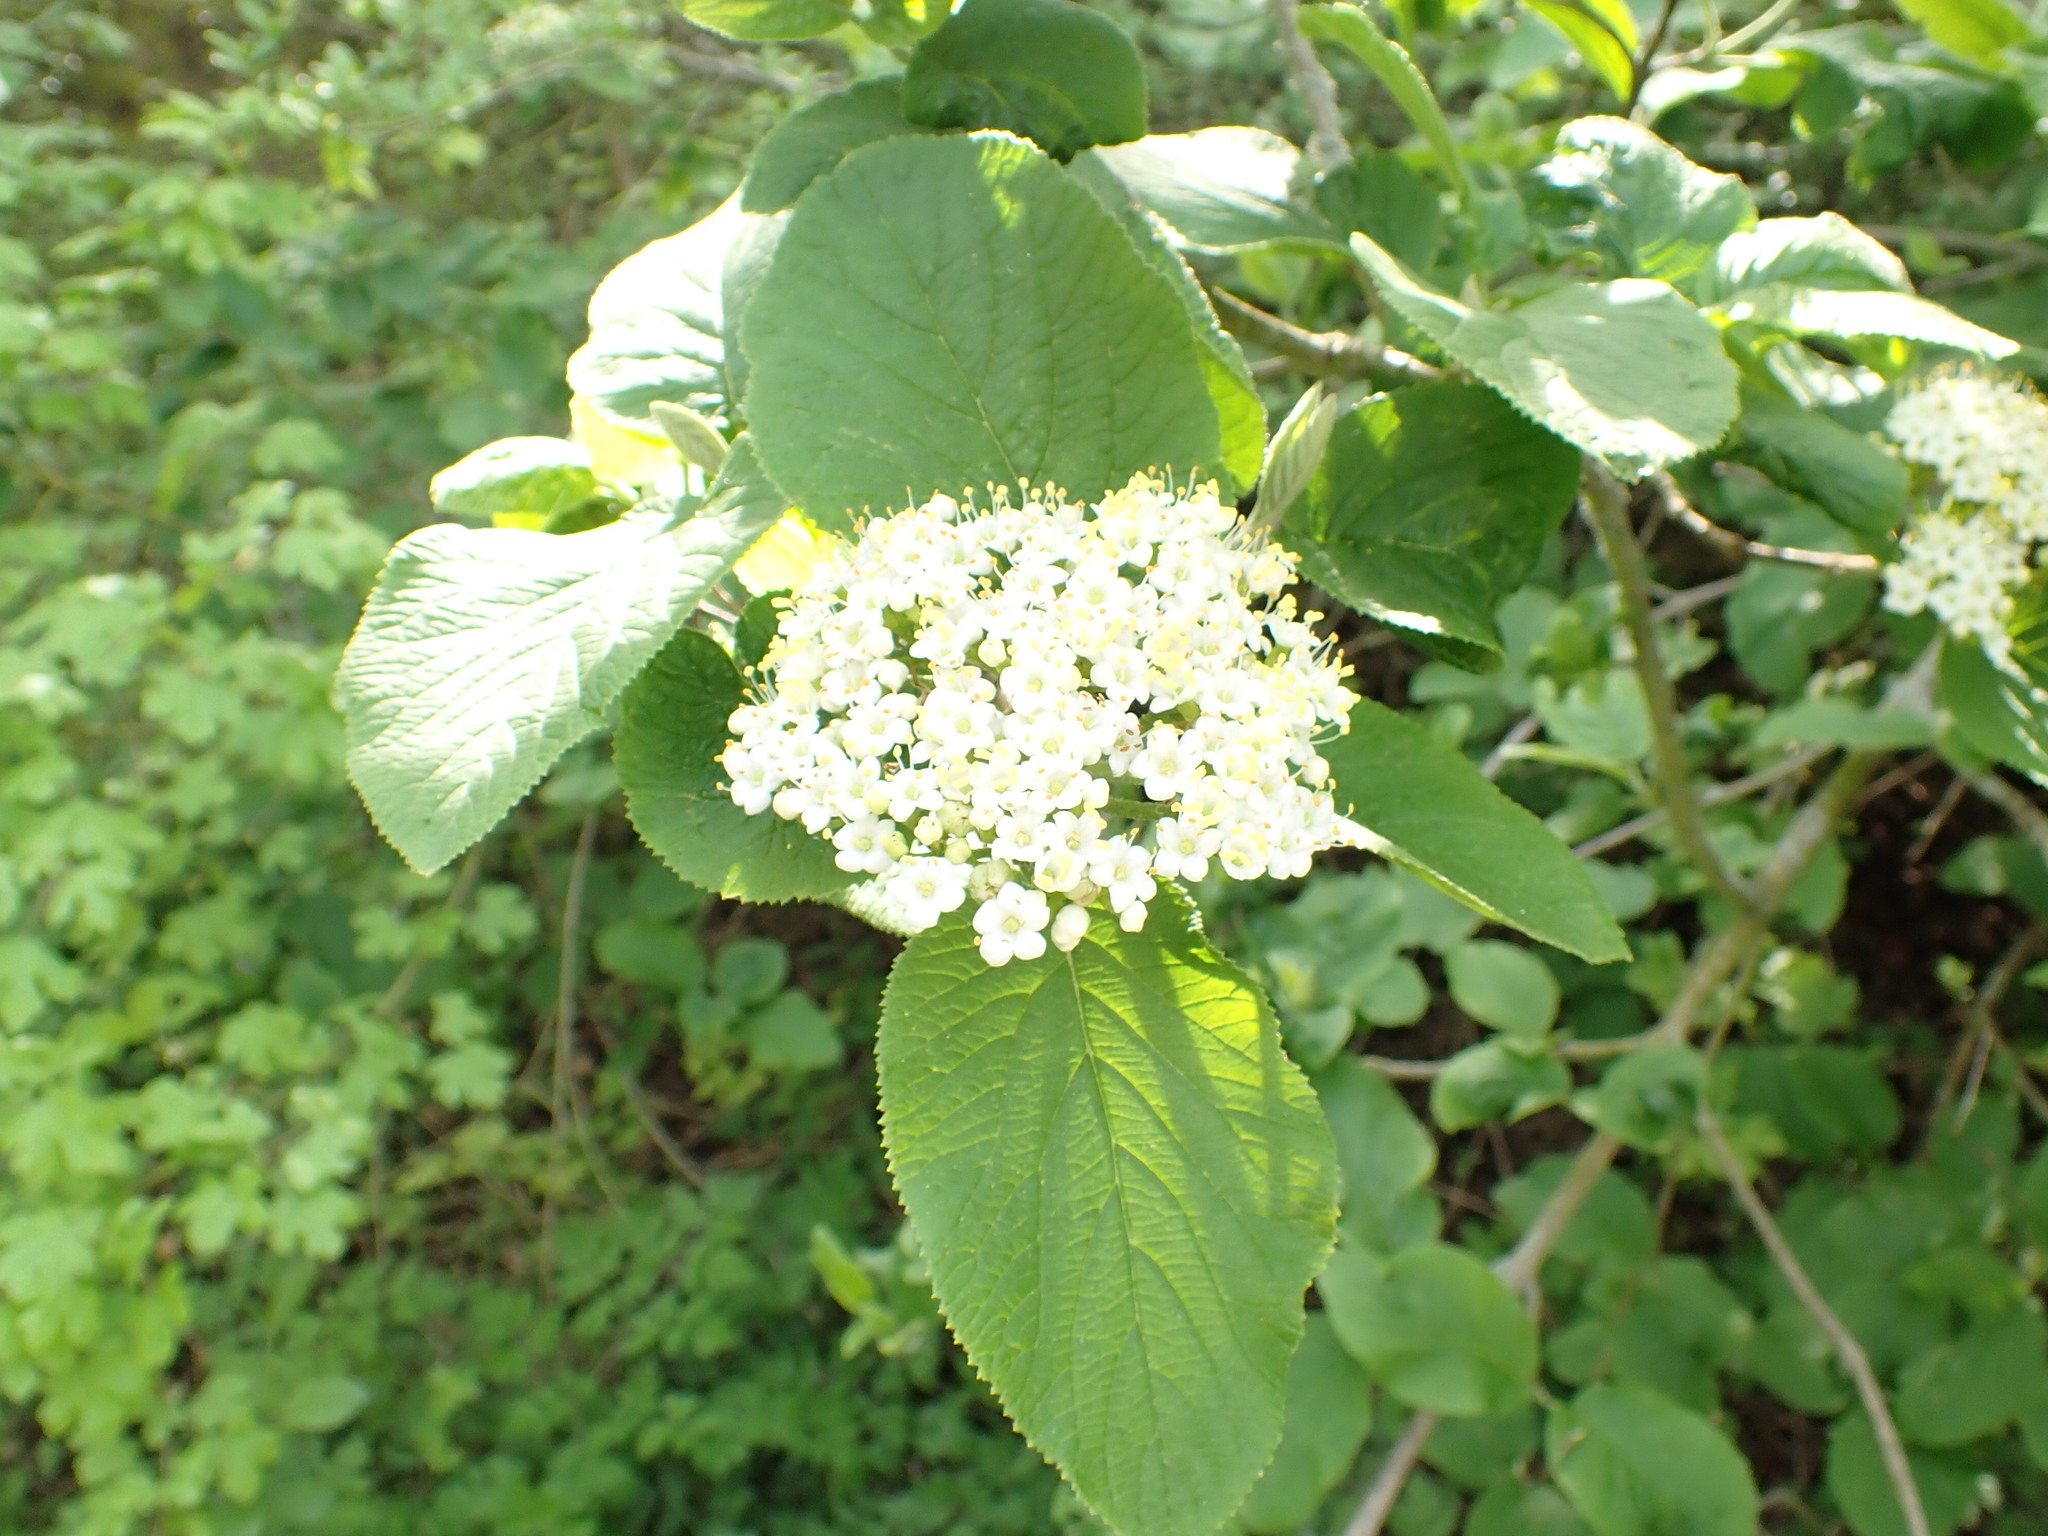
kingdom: Plantae
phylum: Tracheophyta
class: Magnoliopsida
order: Dipsacales
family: Viburnaceae
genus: Viburnum
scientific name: Viburnum lantana
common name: Wayfaring tree
